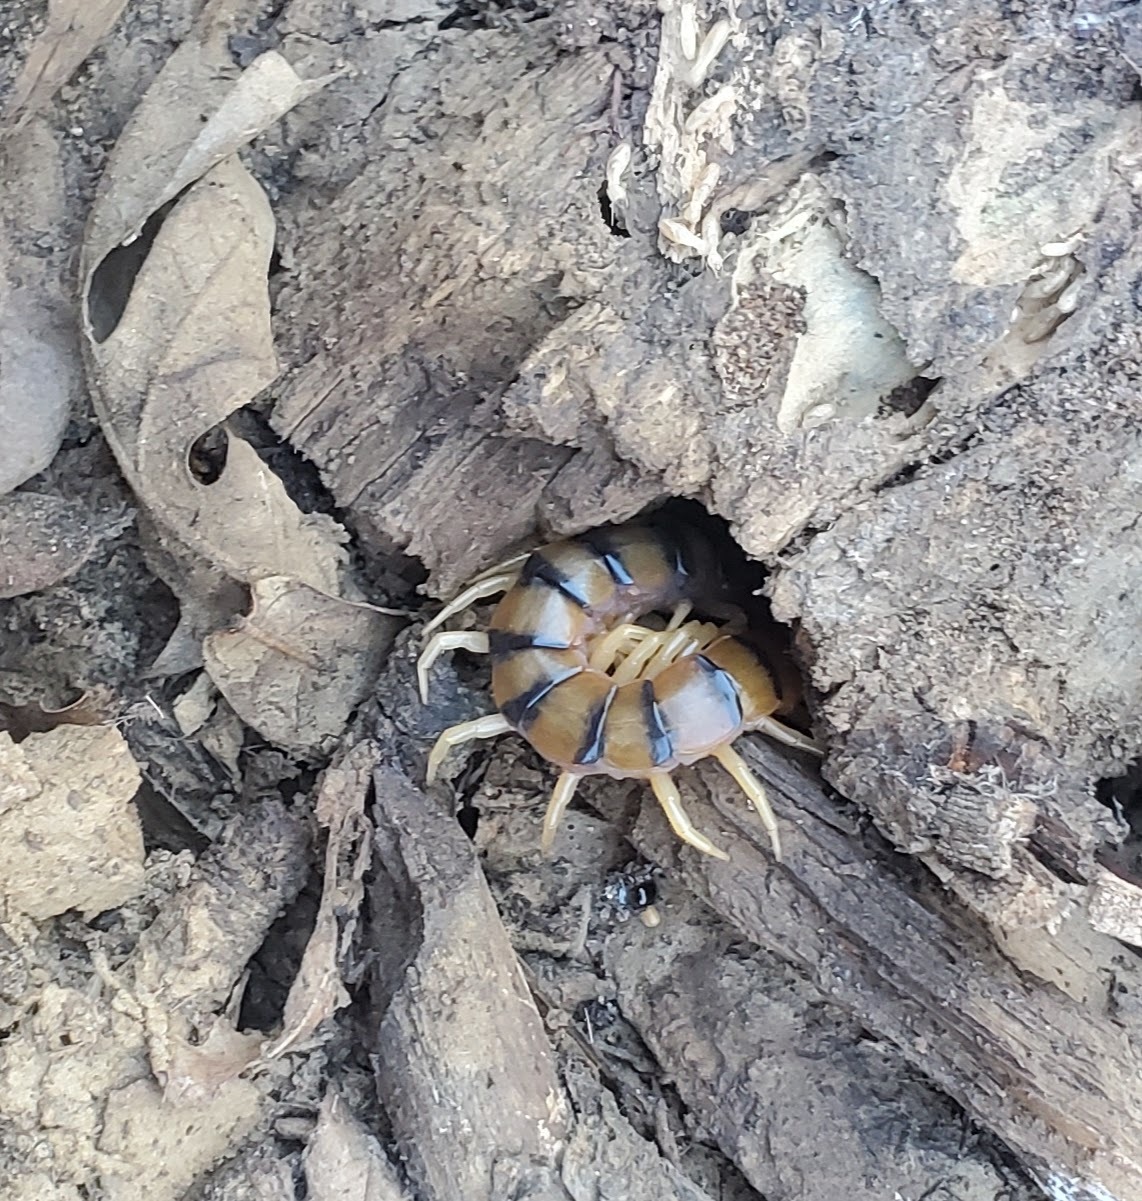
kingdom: Animalia
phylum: Arthropoda
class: Chilopoda
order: Scolopendromorpha
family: Scolopendridae
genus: Scolopendra
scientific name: Scolopendra polymorpha
